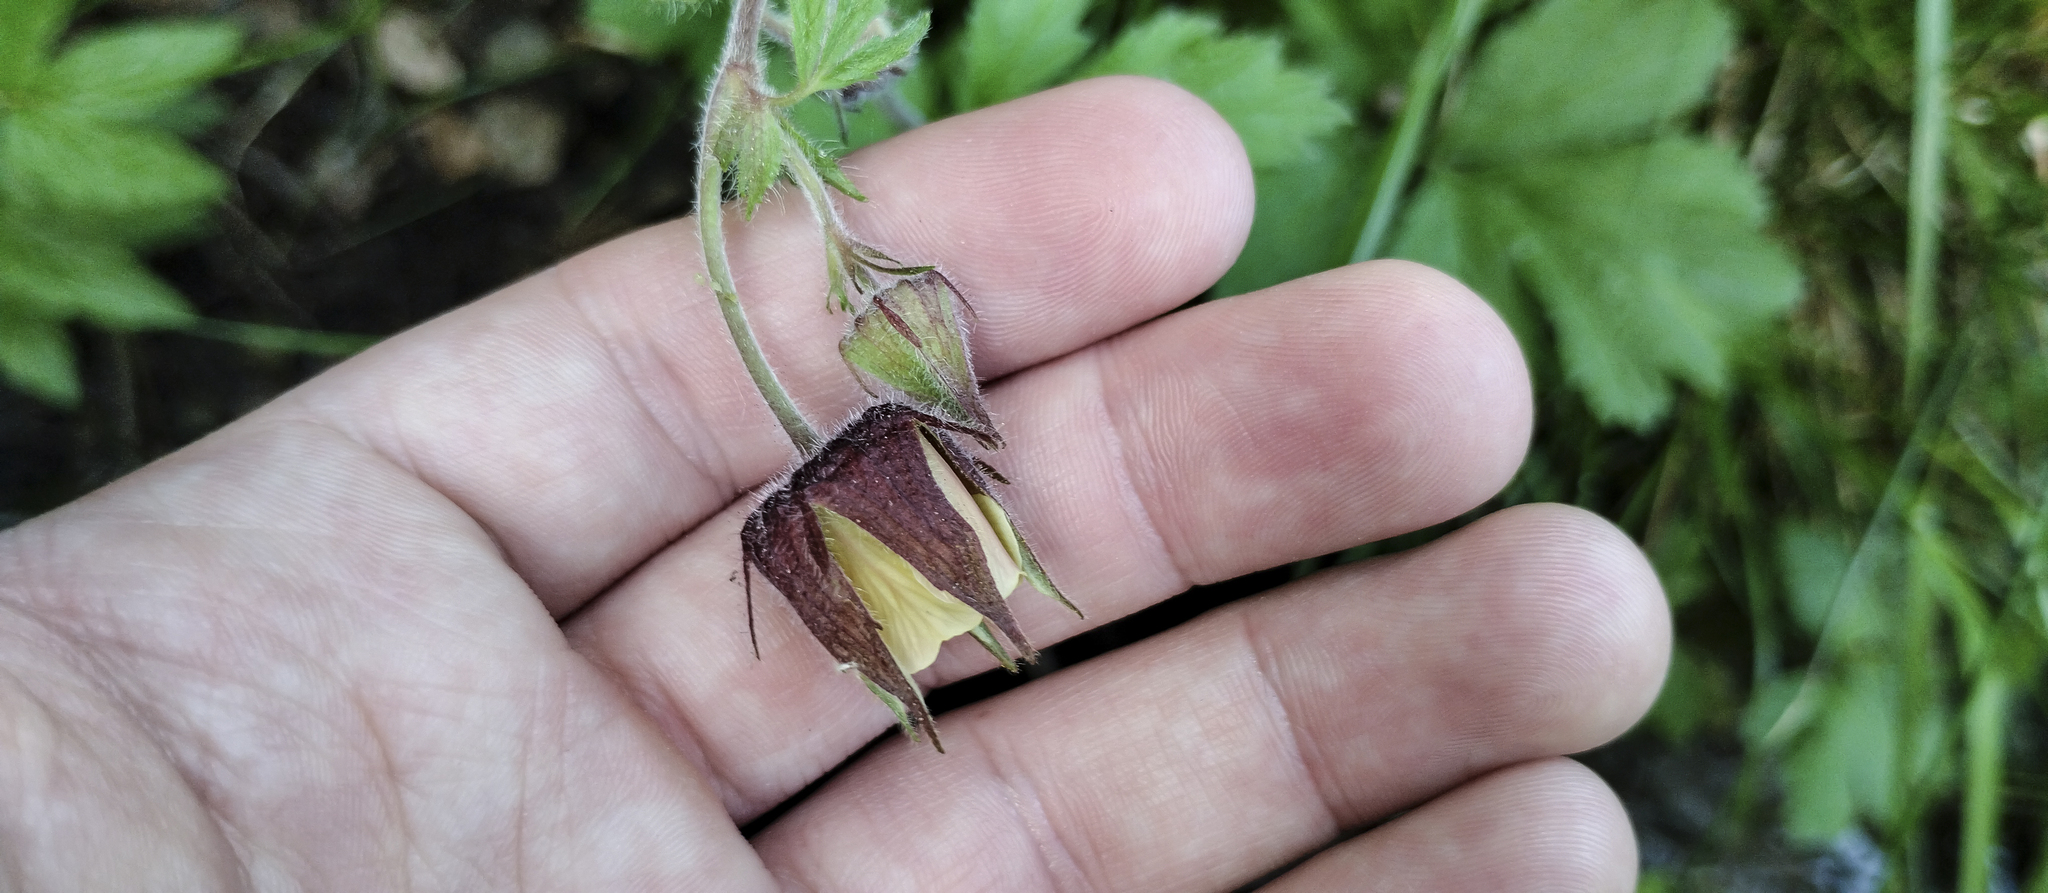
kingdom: Plantae
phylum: Tracheophyta
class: Magnoliopsida
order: Rosales
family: Rosaceae
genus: Geum
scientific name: Geum rivale
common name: Water avens
